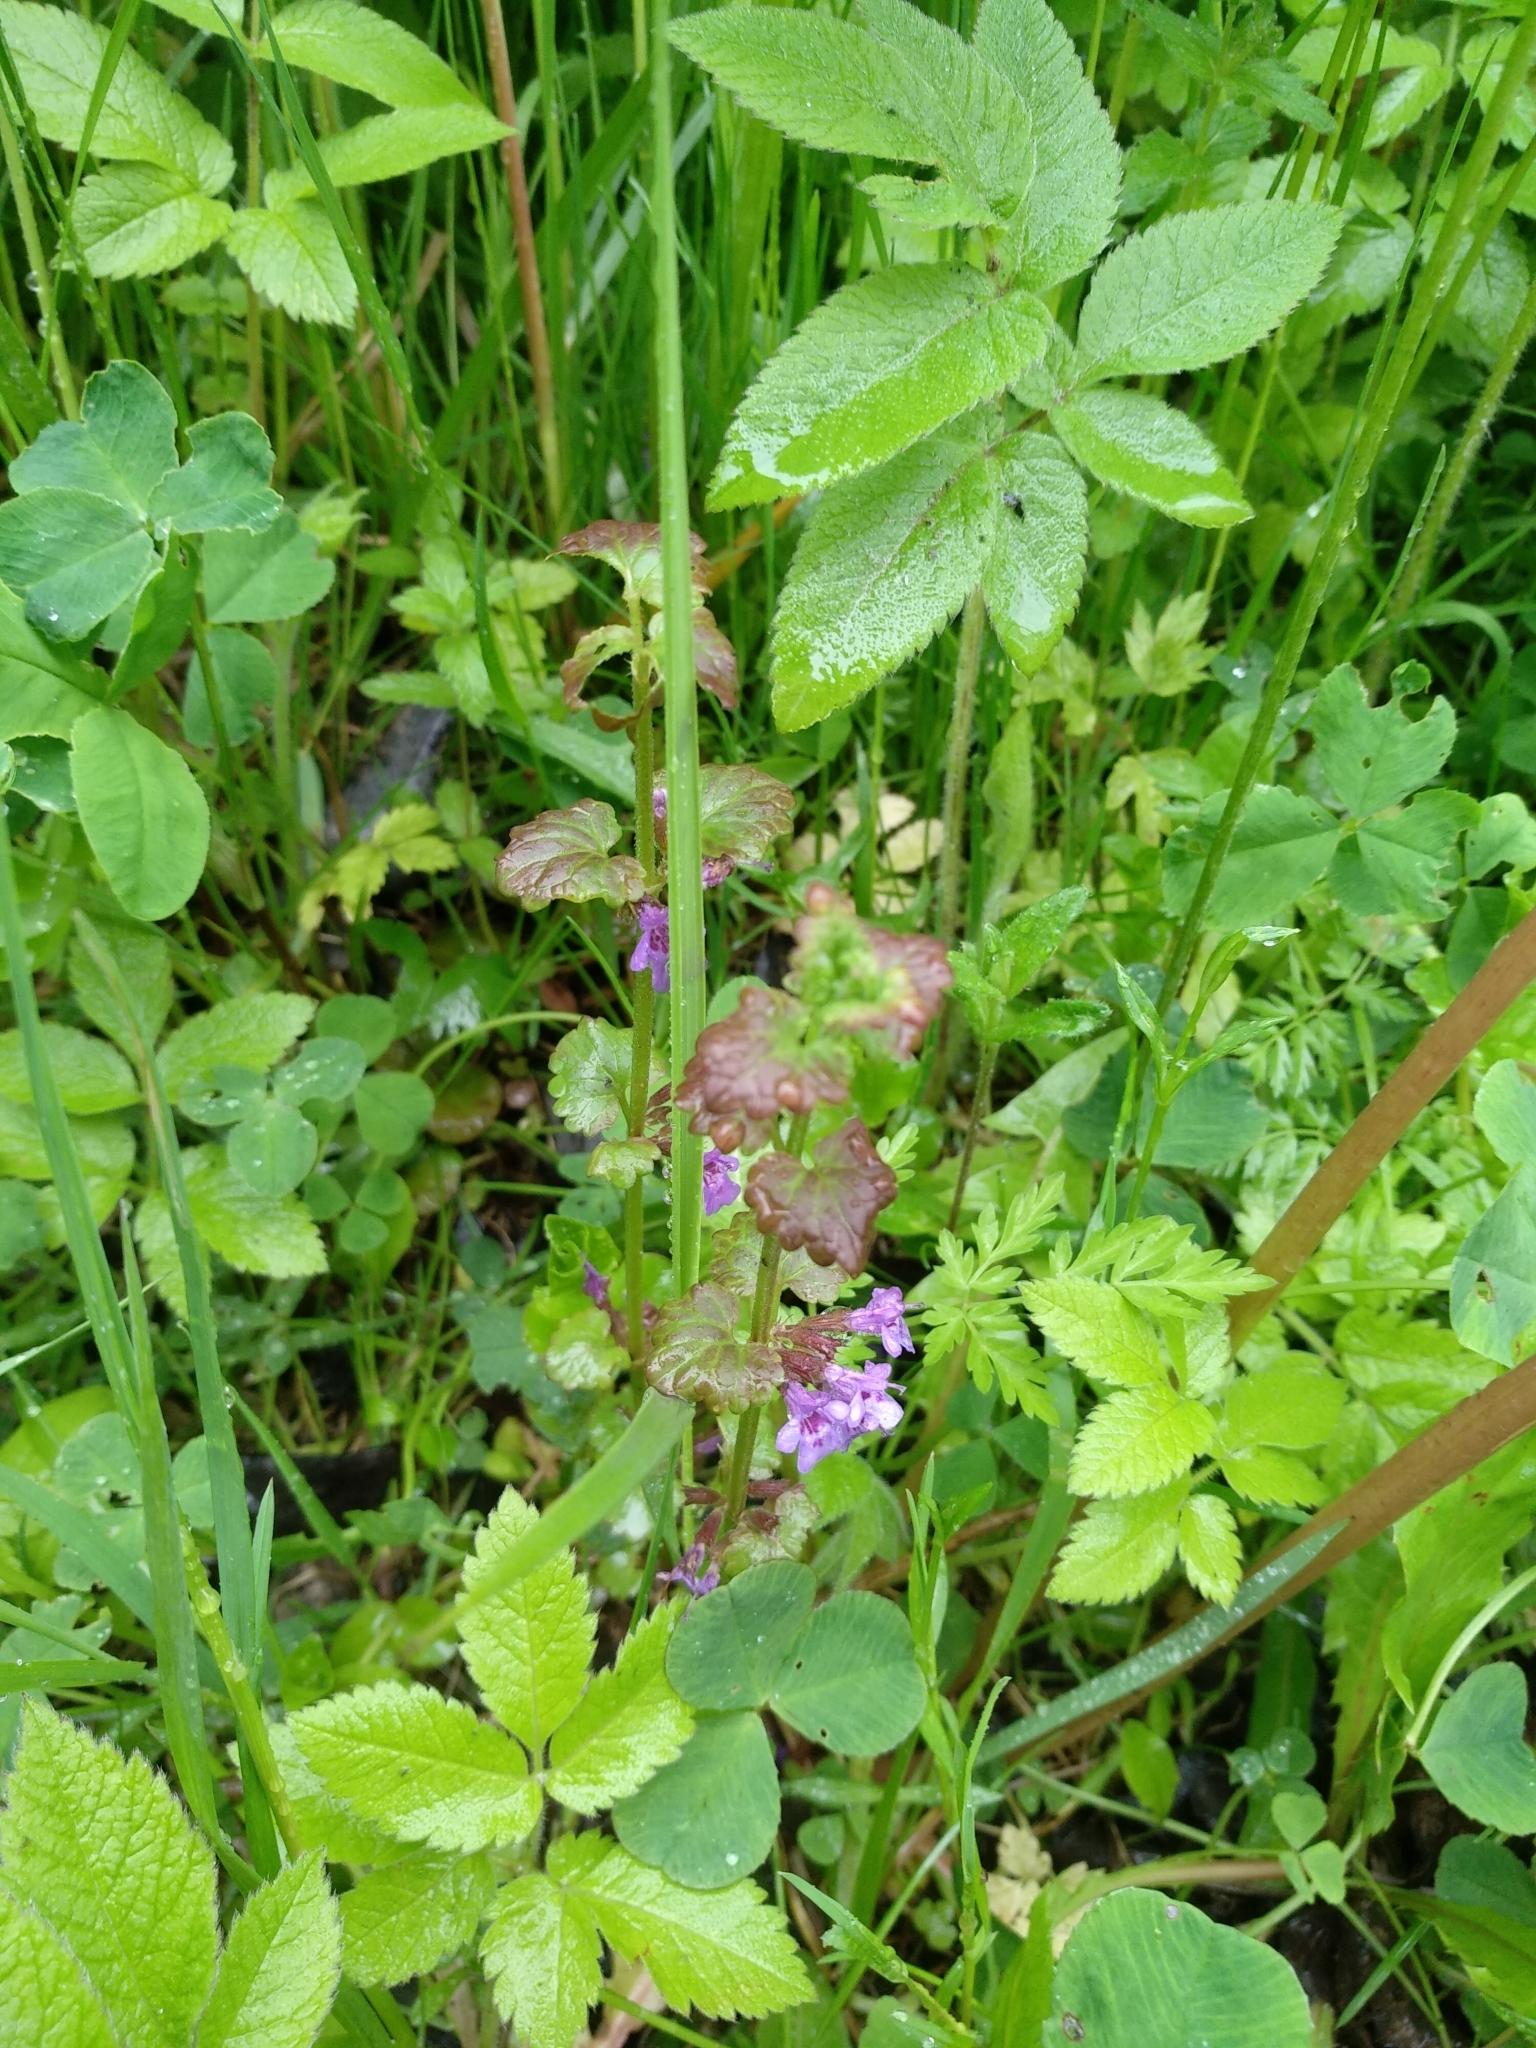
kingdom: Plantae
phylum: Tracheophyta
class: Magnoliopsida
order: Lamiales
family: Lamiaceae
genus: Glechoma
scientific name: Glechoma hederacea
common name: Ground ivy
